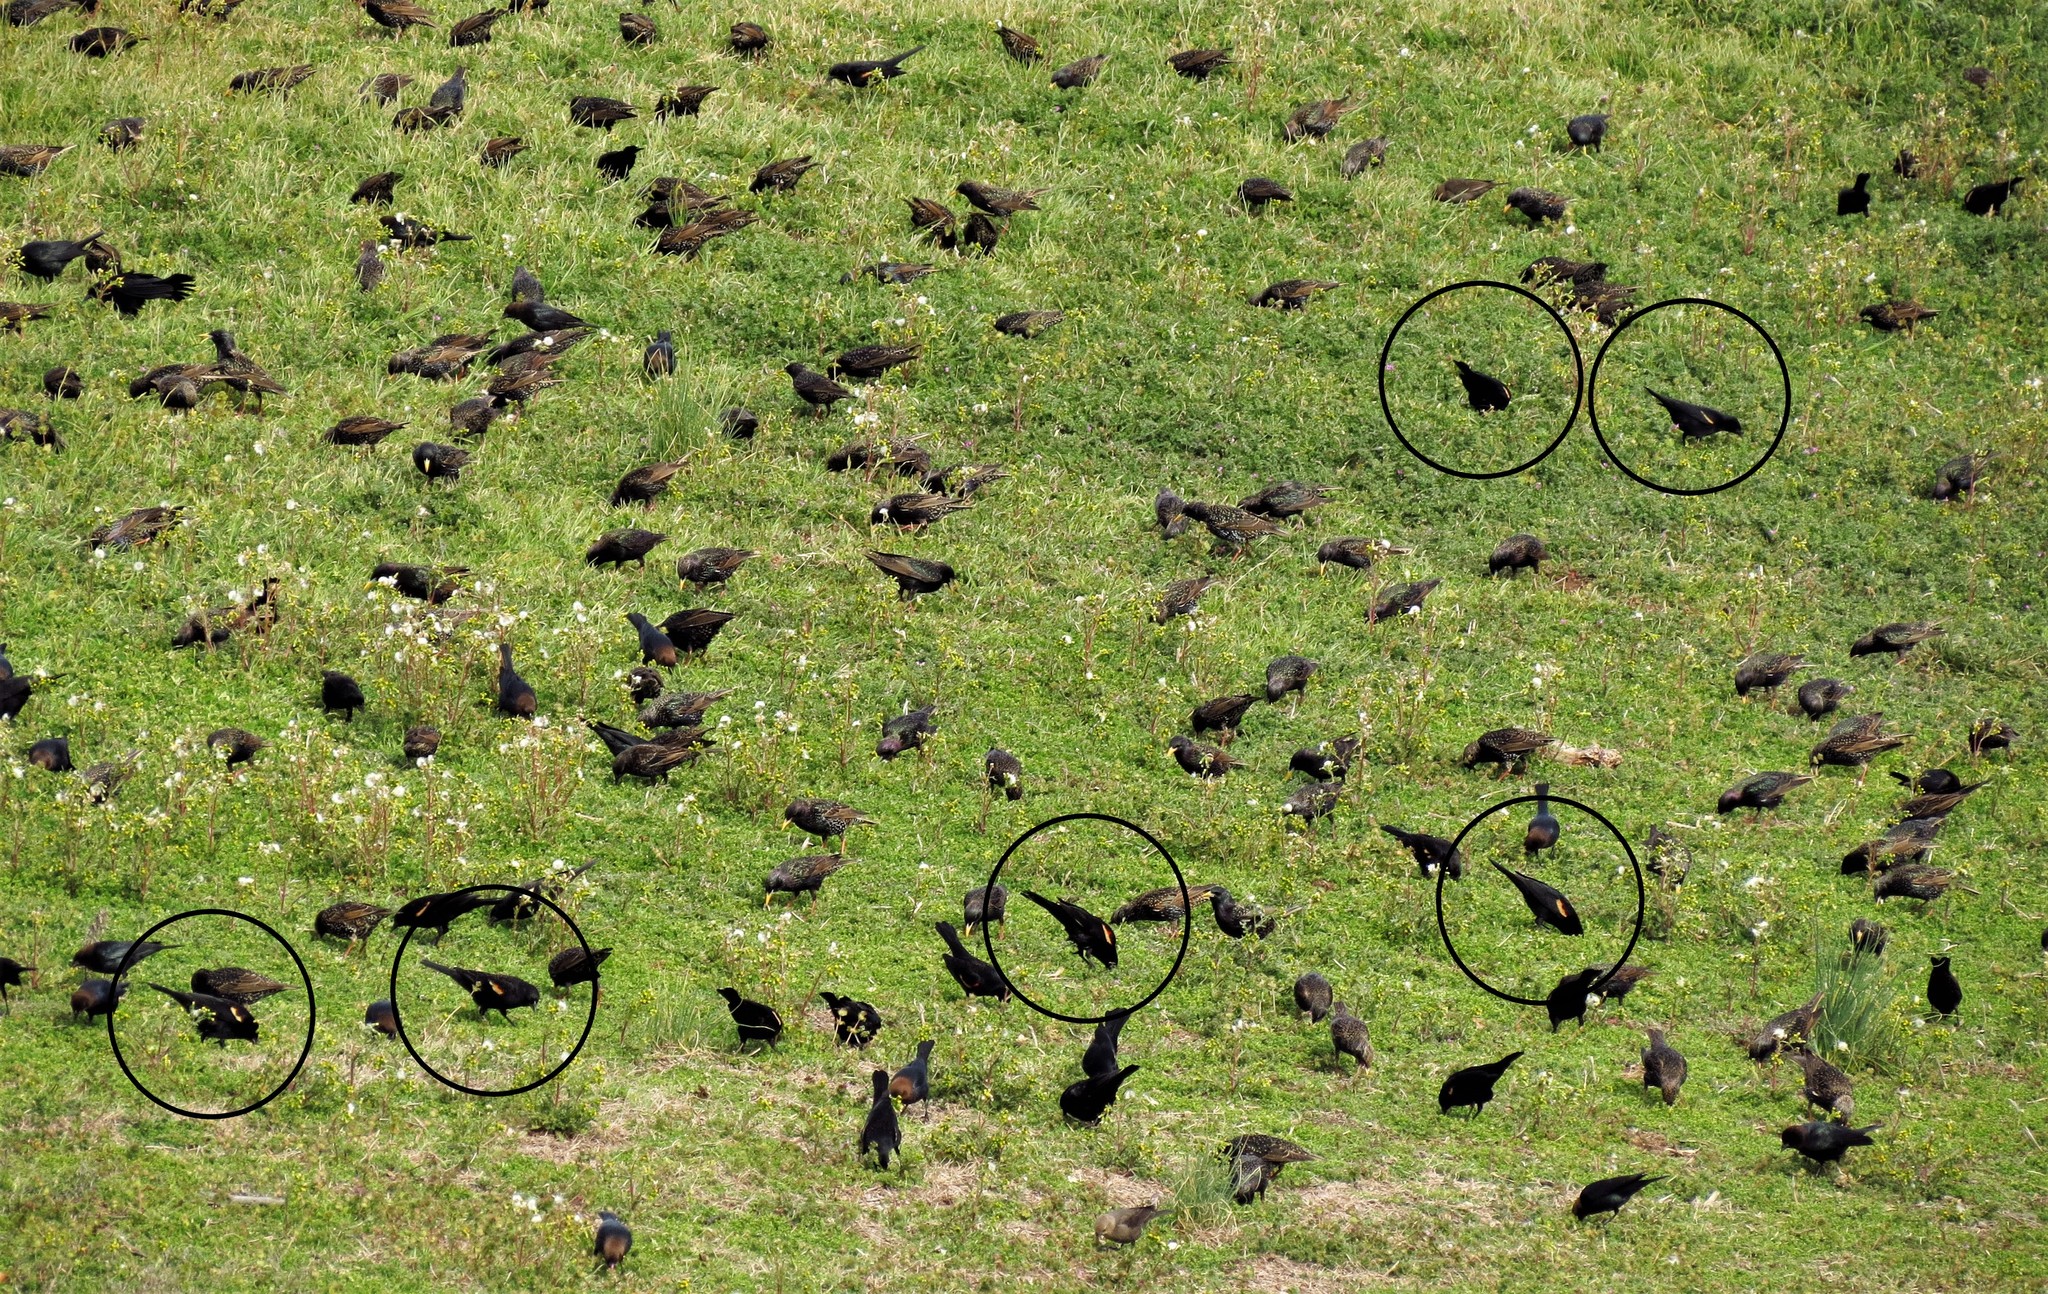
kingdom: Animalia
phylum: Chordata
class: Aves
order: Passeriformes
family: Icteridae
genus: Agelaius
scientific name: Agelaius phoeniceus
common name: Red-winged blackbird
